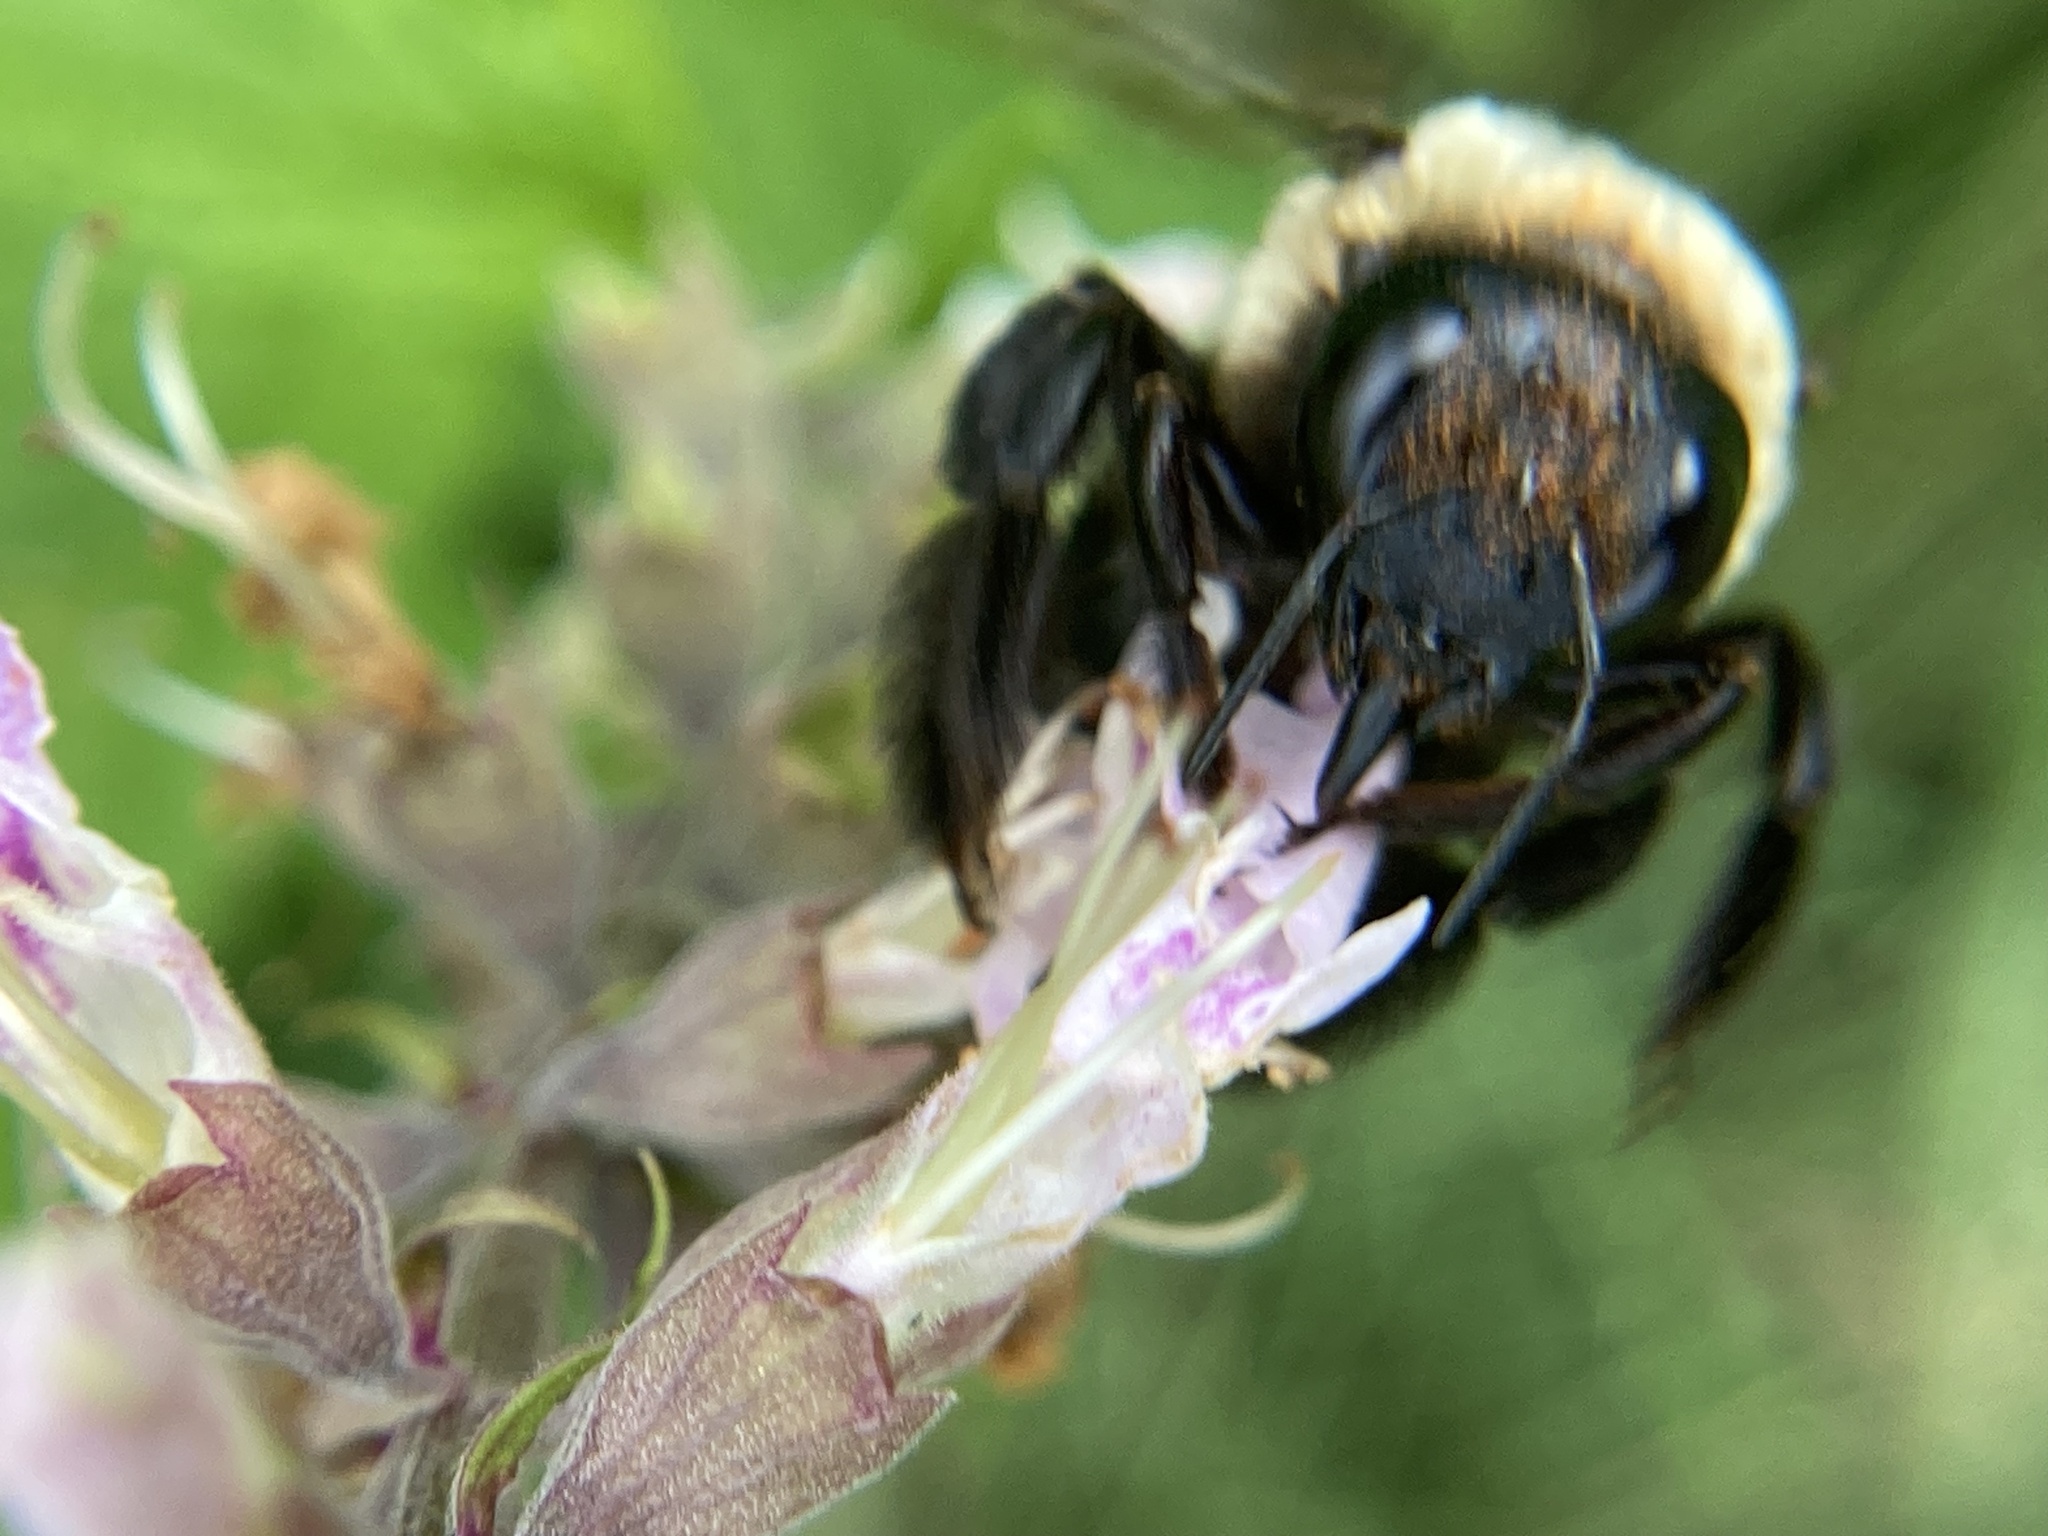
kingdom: Animalia
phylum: Arthropoda
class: Insecta
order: Hymenoptera
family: Apidae
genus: Xylocopa
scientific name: Xylocopa virginica
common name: Carpenter bee
